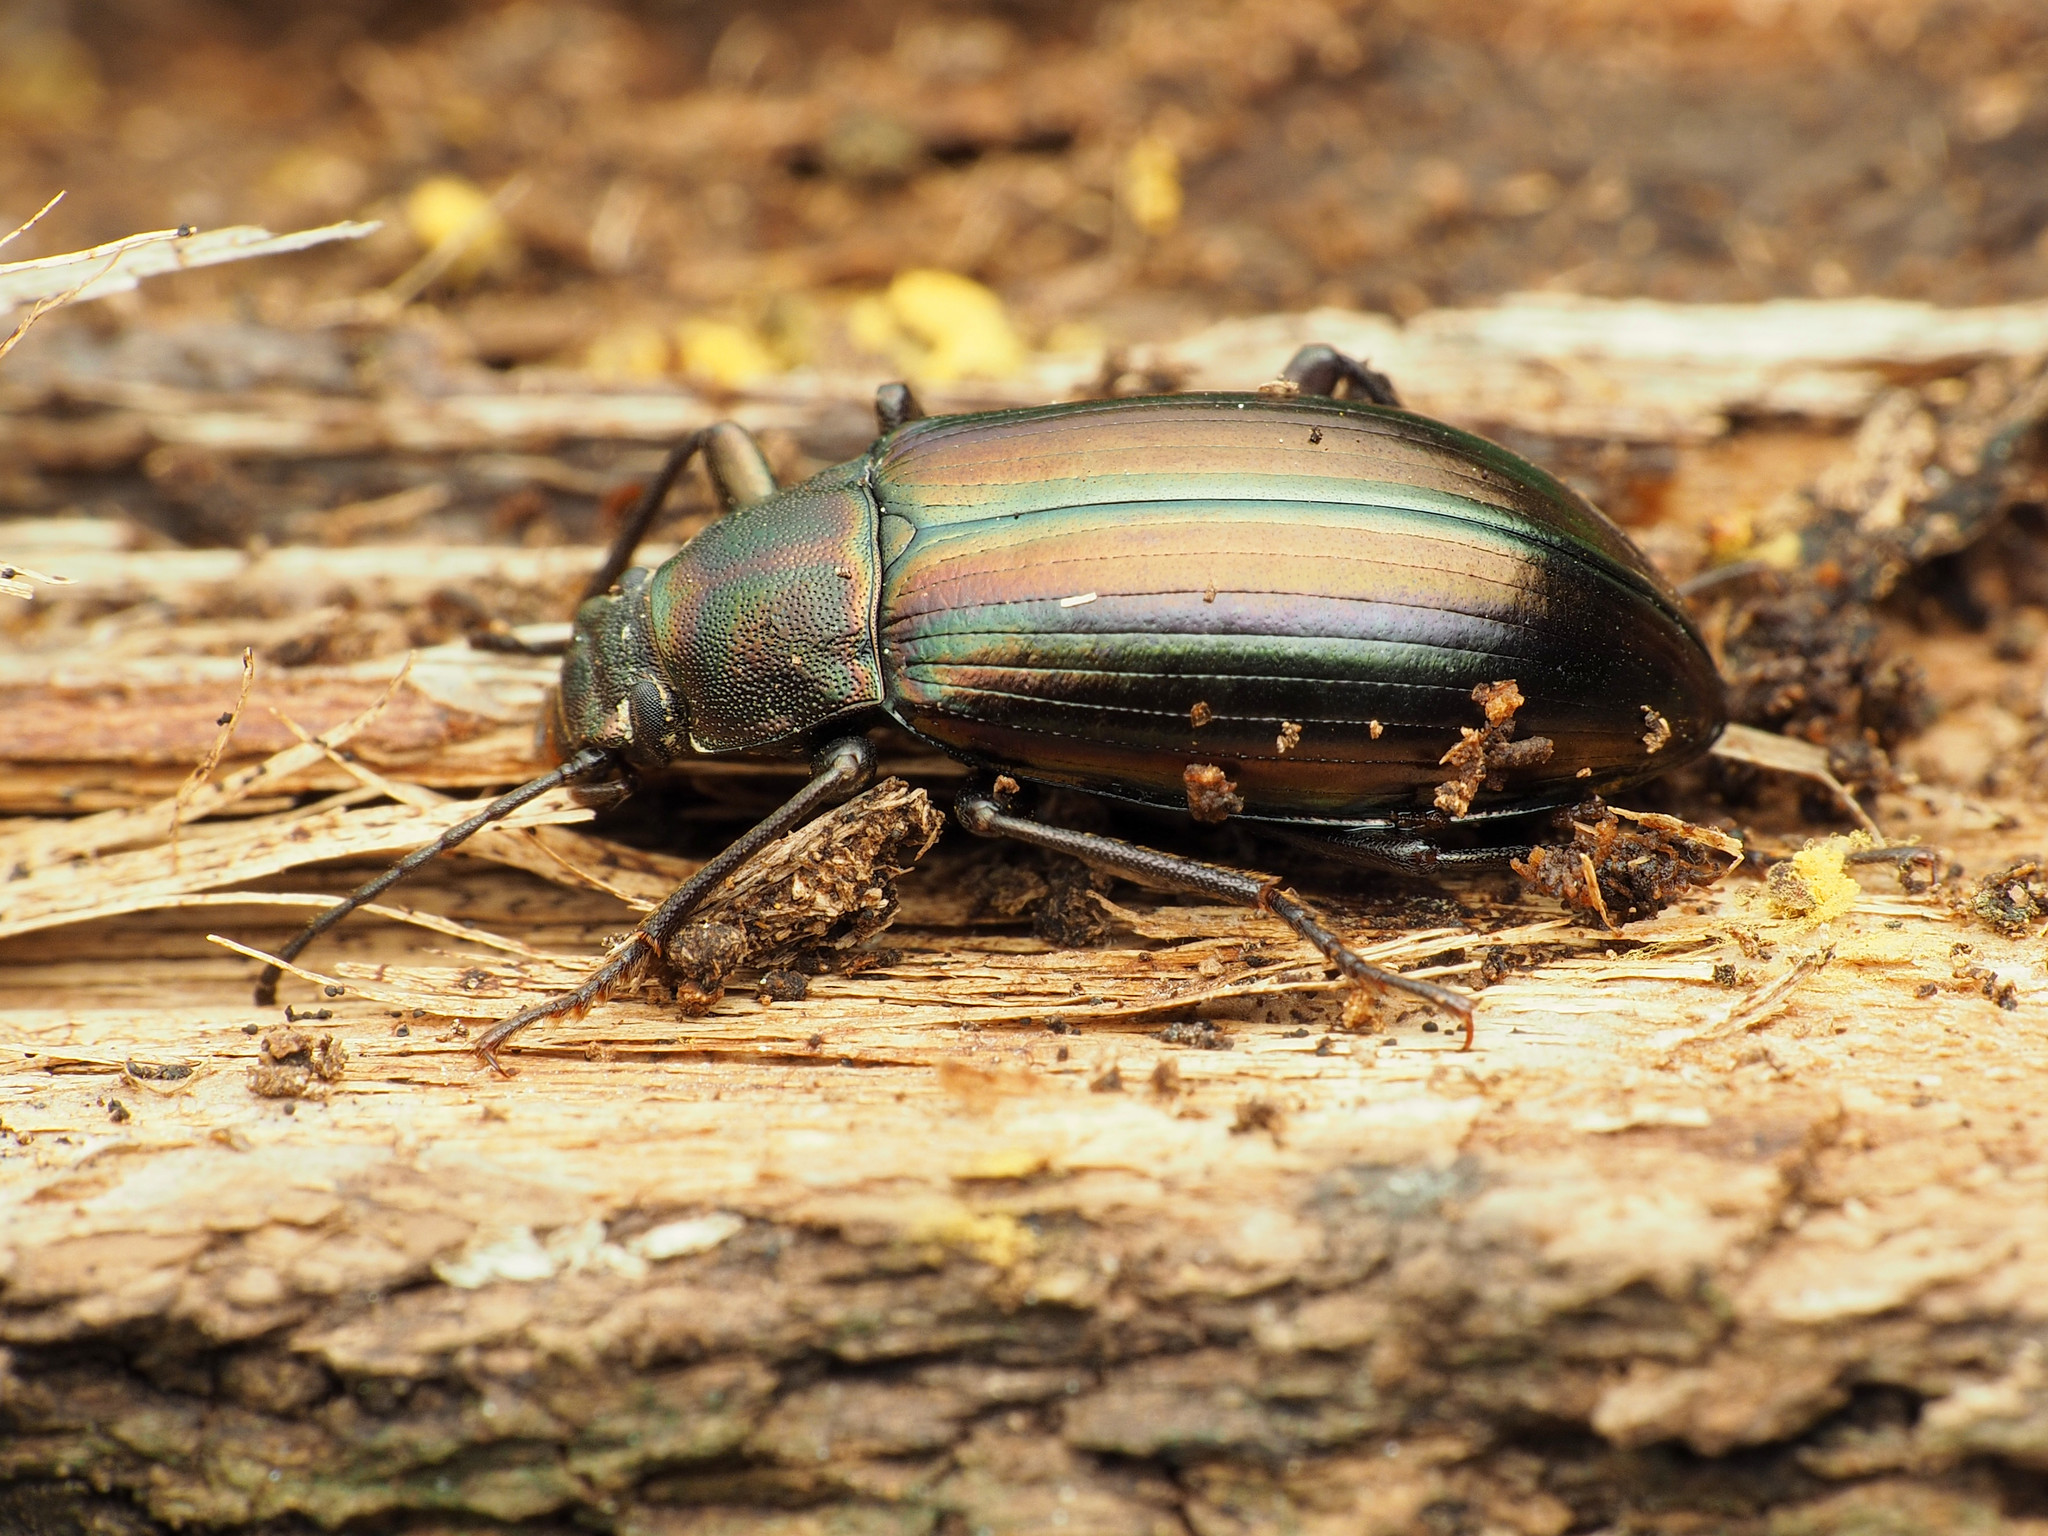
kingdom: Animalia
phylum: Arthropoda
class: Insecta
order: Coleoptera
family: Tenebrionidae
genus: Tarpela
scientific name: Tarpela micans
